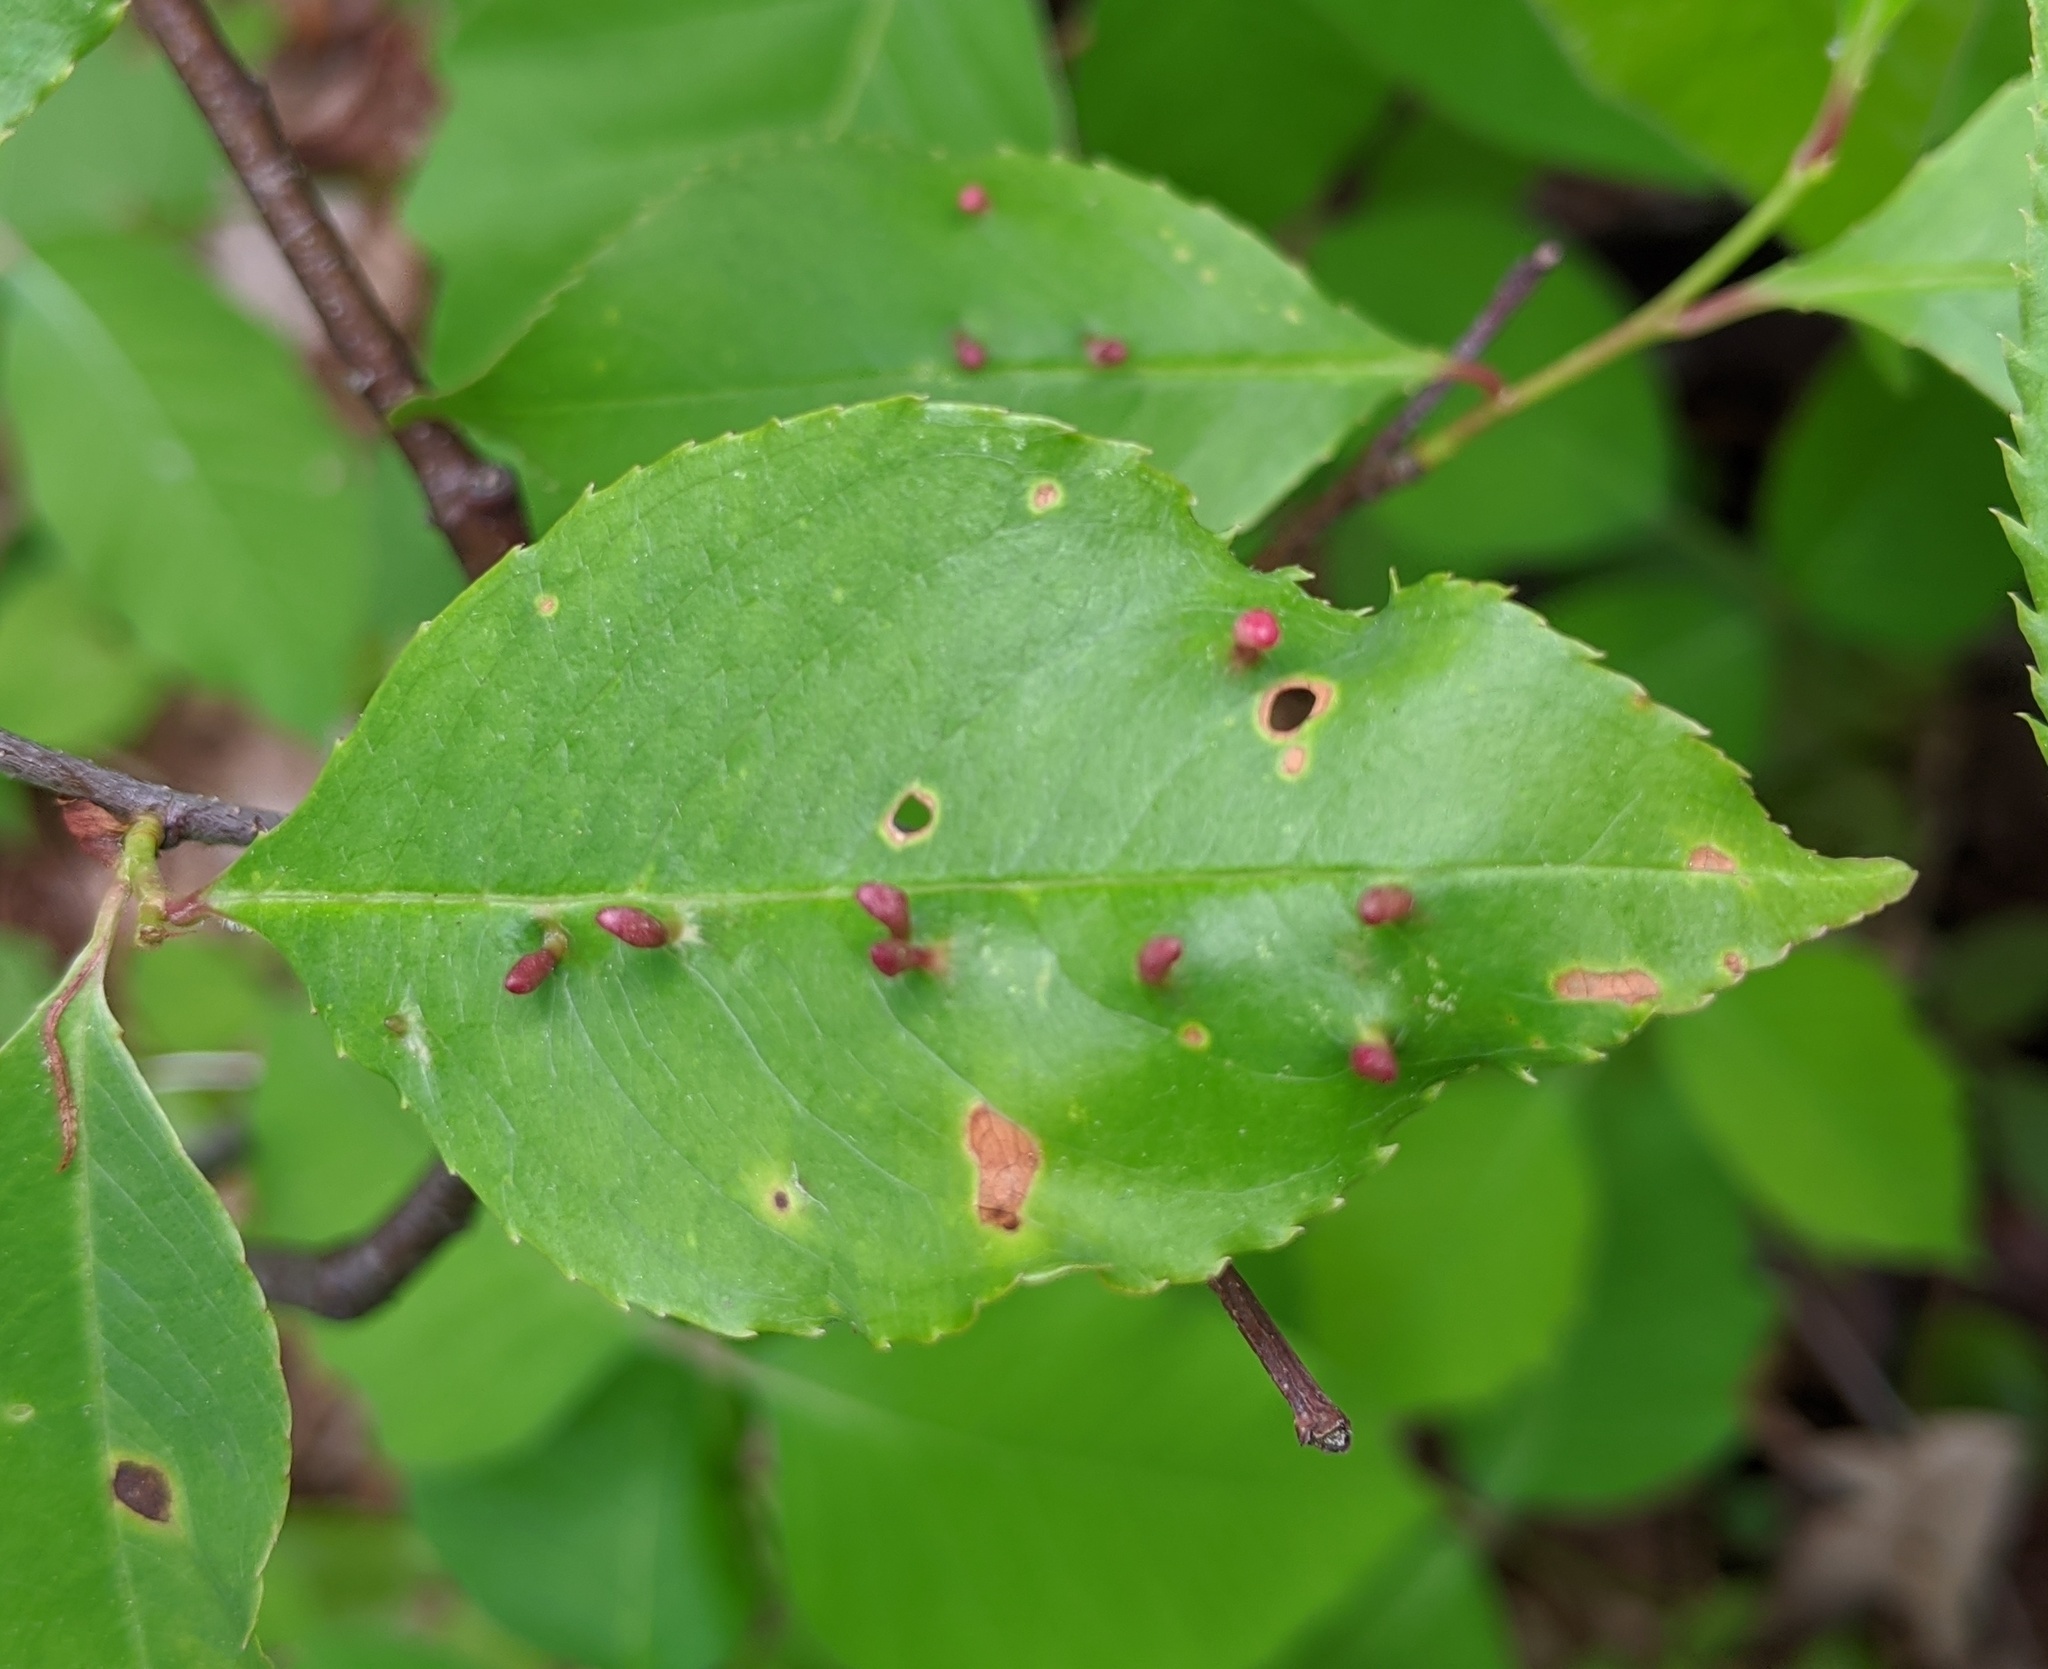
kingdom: Animalia
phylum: Arthropoda
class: Arachnida
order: Trombidiformes
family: Eriophyidae
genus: Eriophyes
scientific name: Eriophyes
